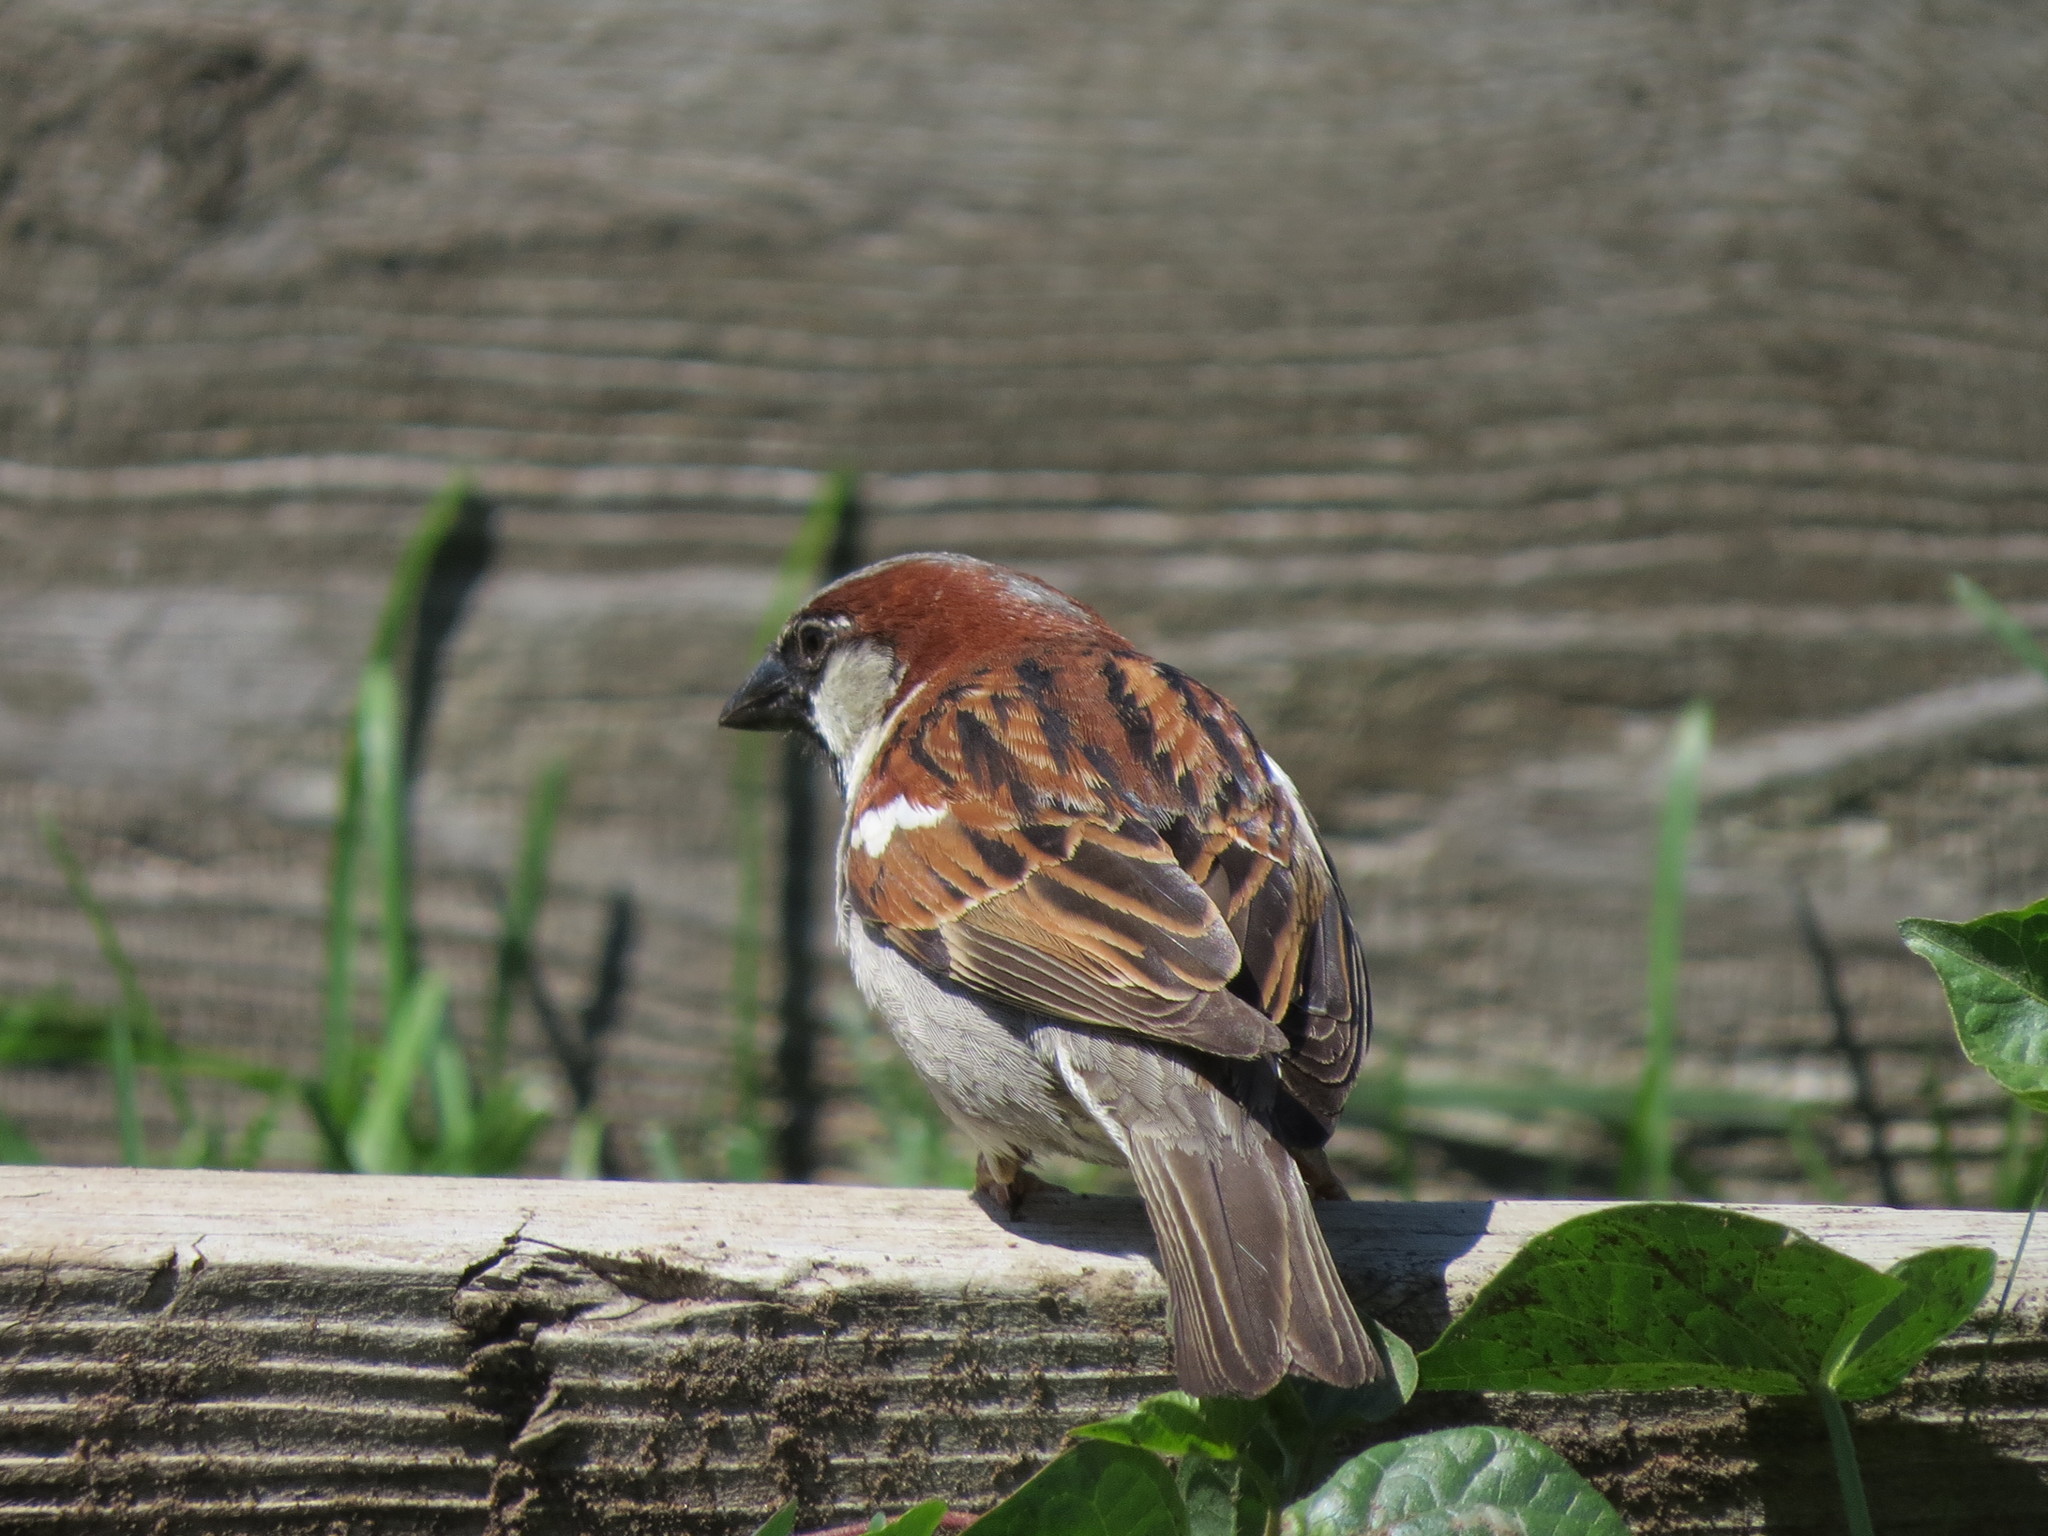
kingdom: Animalia
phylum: Chordata
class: Aves
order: Passeriformes
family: Passeridae
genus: Passer
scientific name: Passer domesticus
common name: House sparrow
